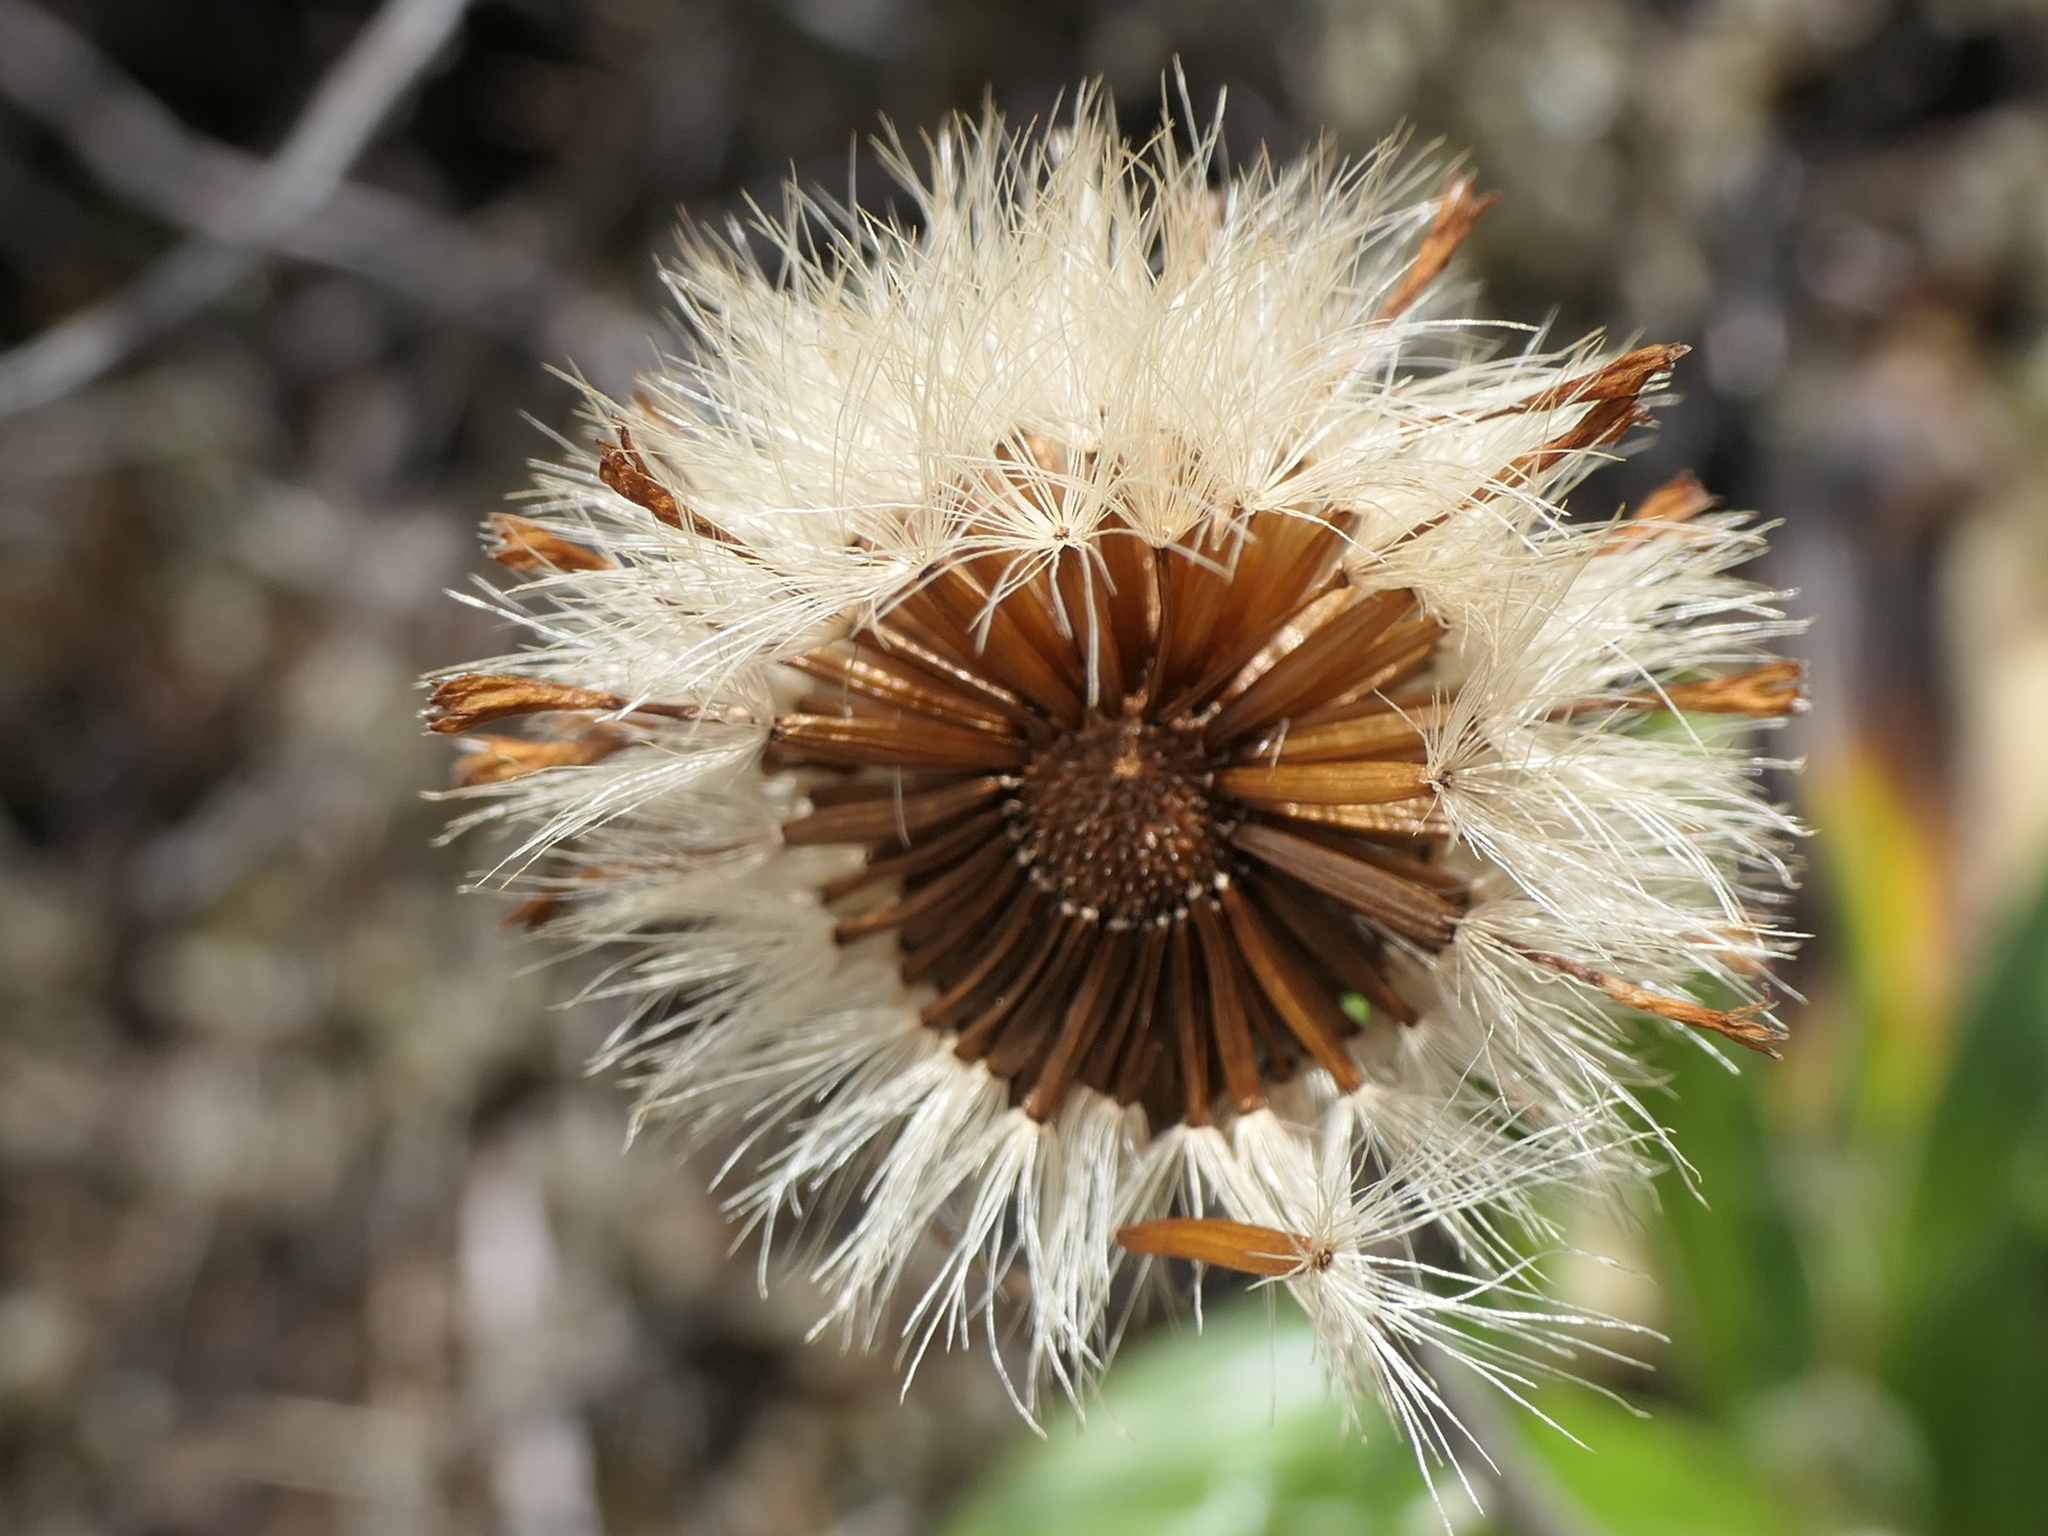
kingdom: Plantae
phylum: Tracheophyta
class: Magnoliopsida
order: Asterales
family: Asteraceae
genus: Celmisia
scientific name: Celmisia spectabilis
